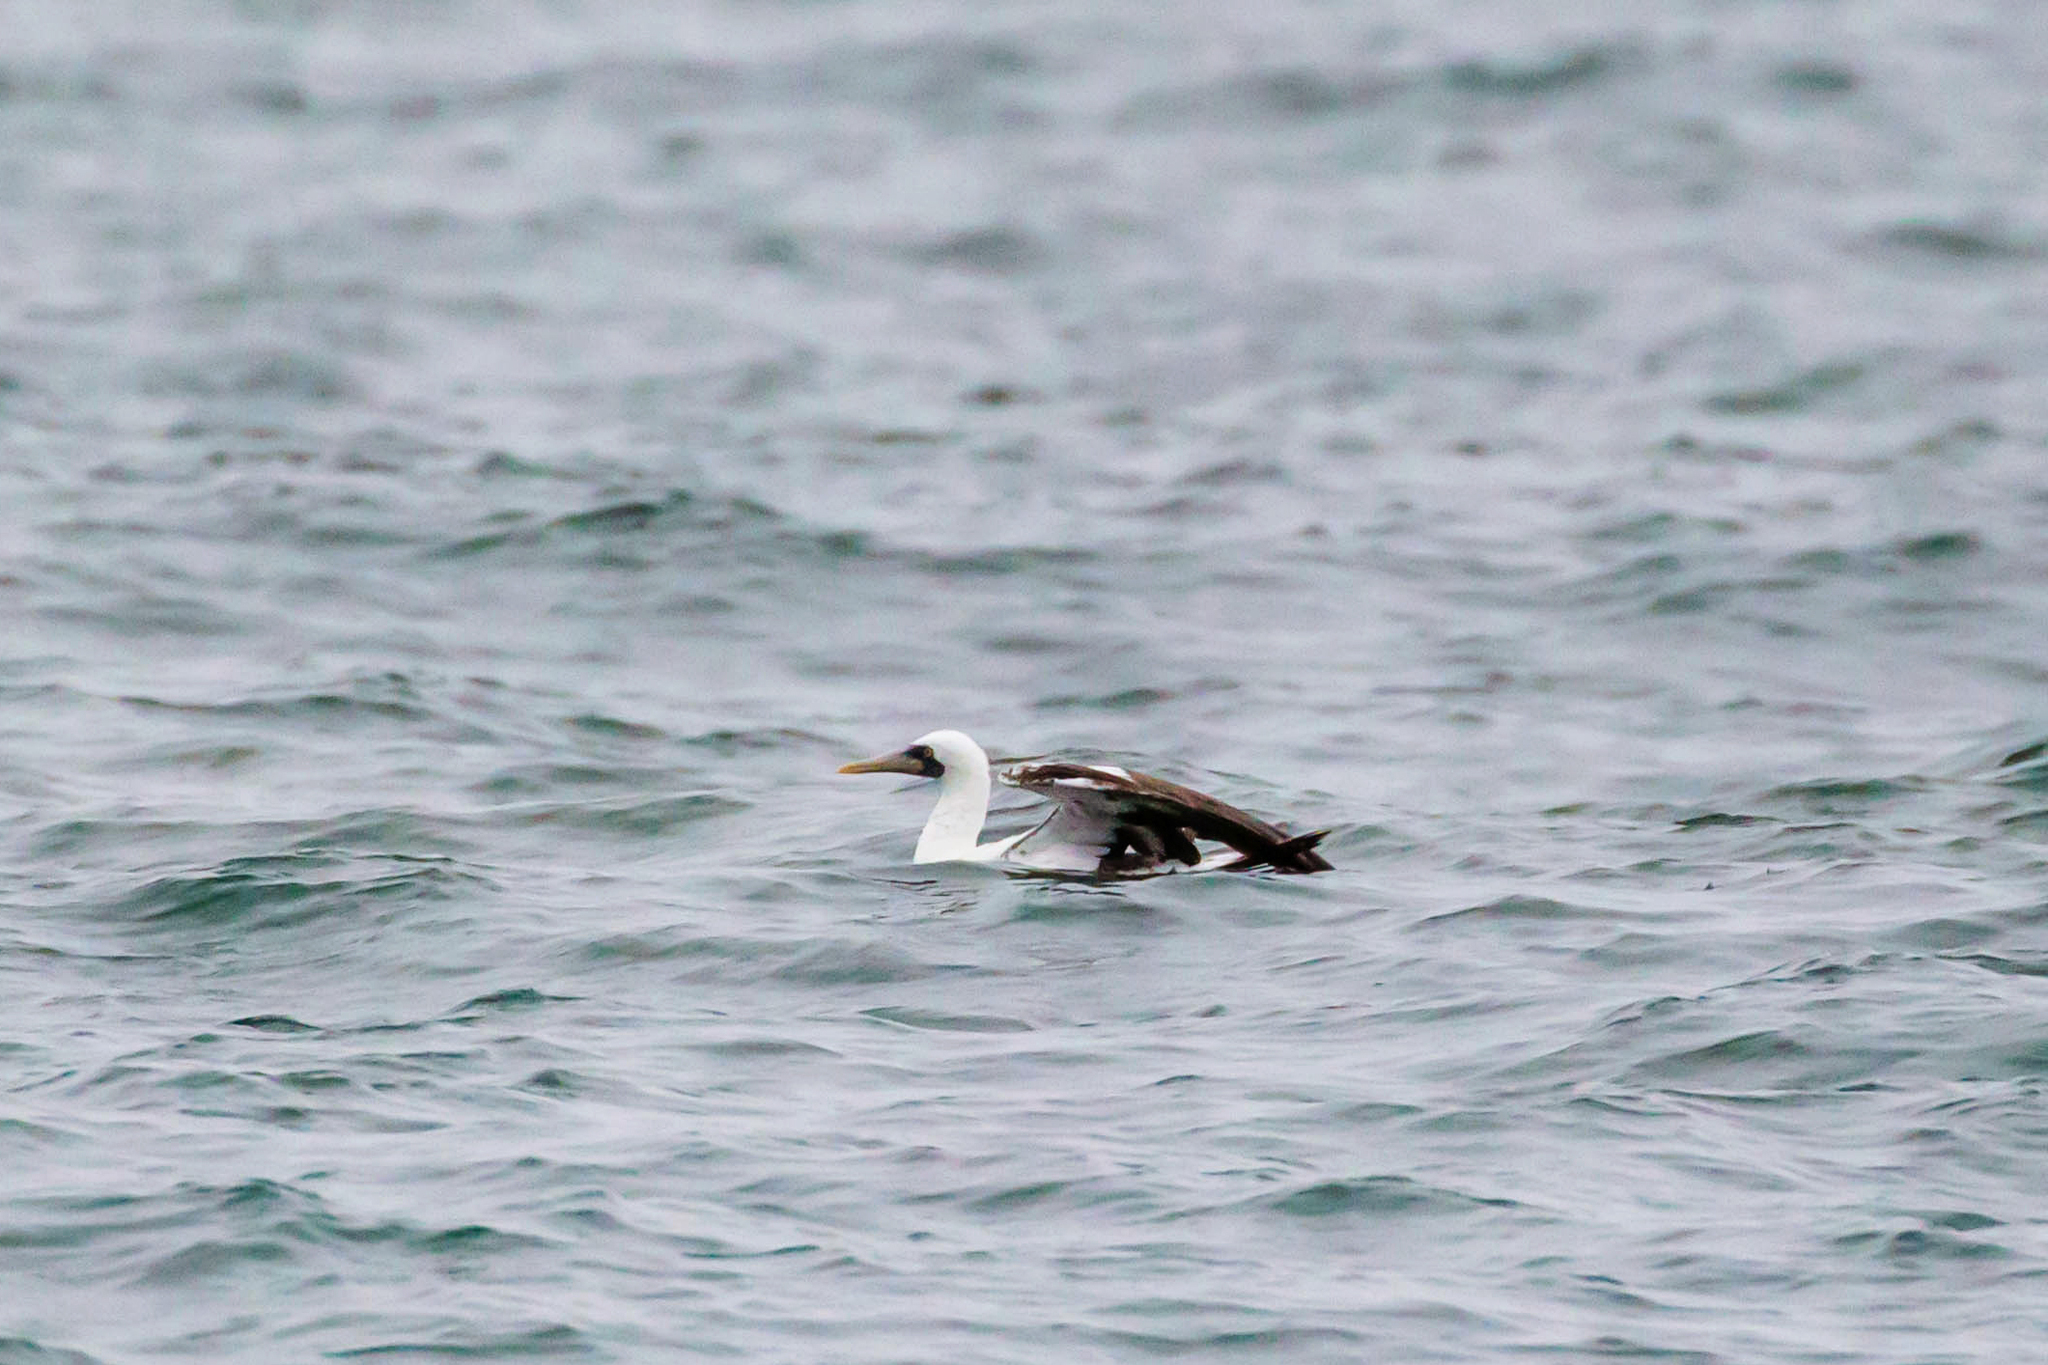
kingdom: Animalia
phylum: Chordata
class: Aves
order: Suliformes
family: Sulidae
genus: Sula
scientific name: Sula dactylatra
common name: Masked booby
